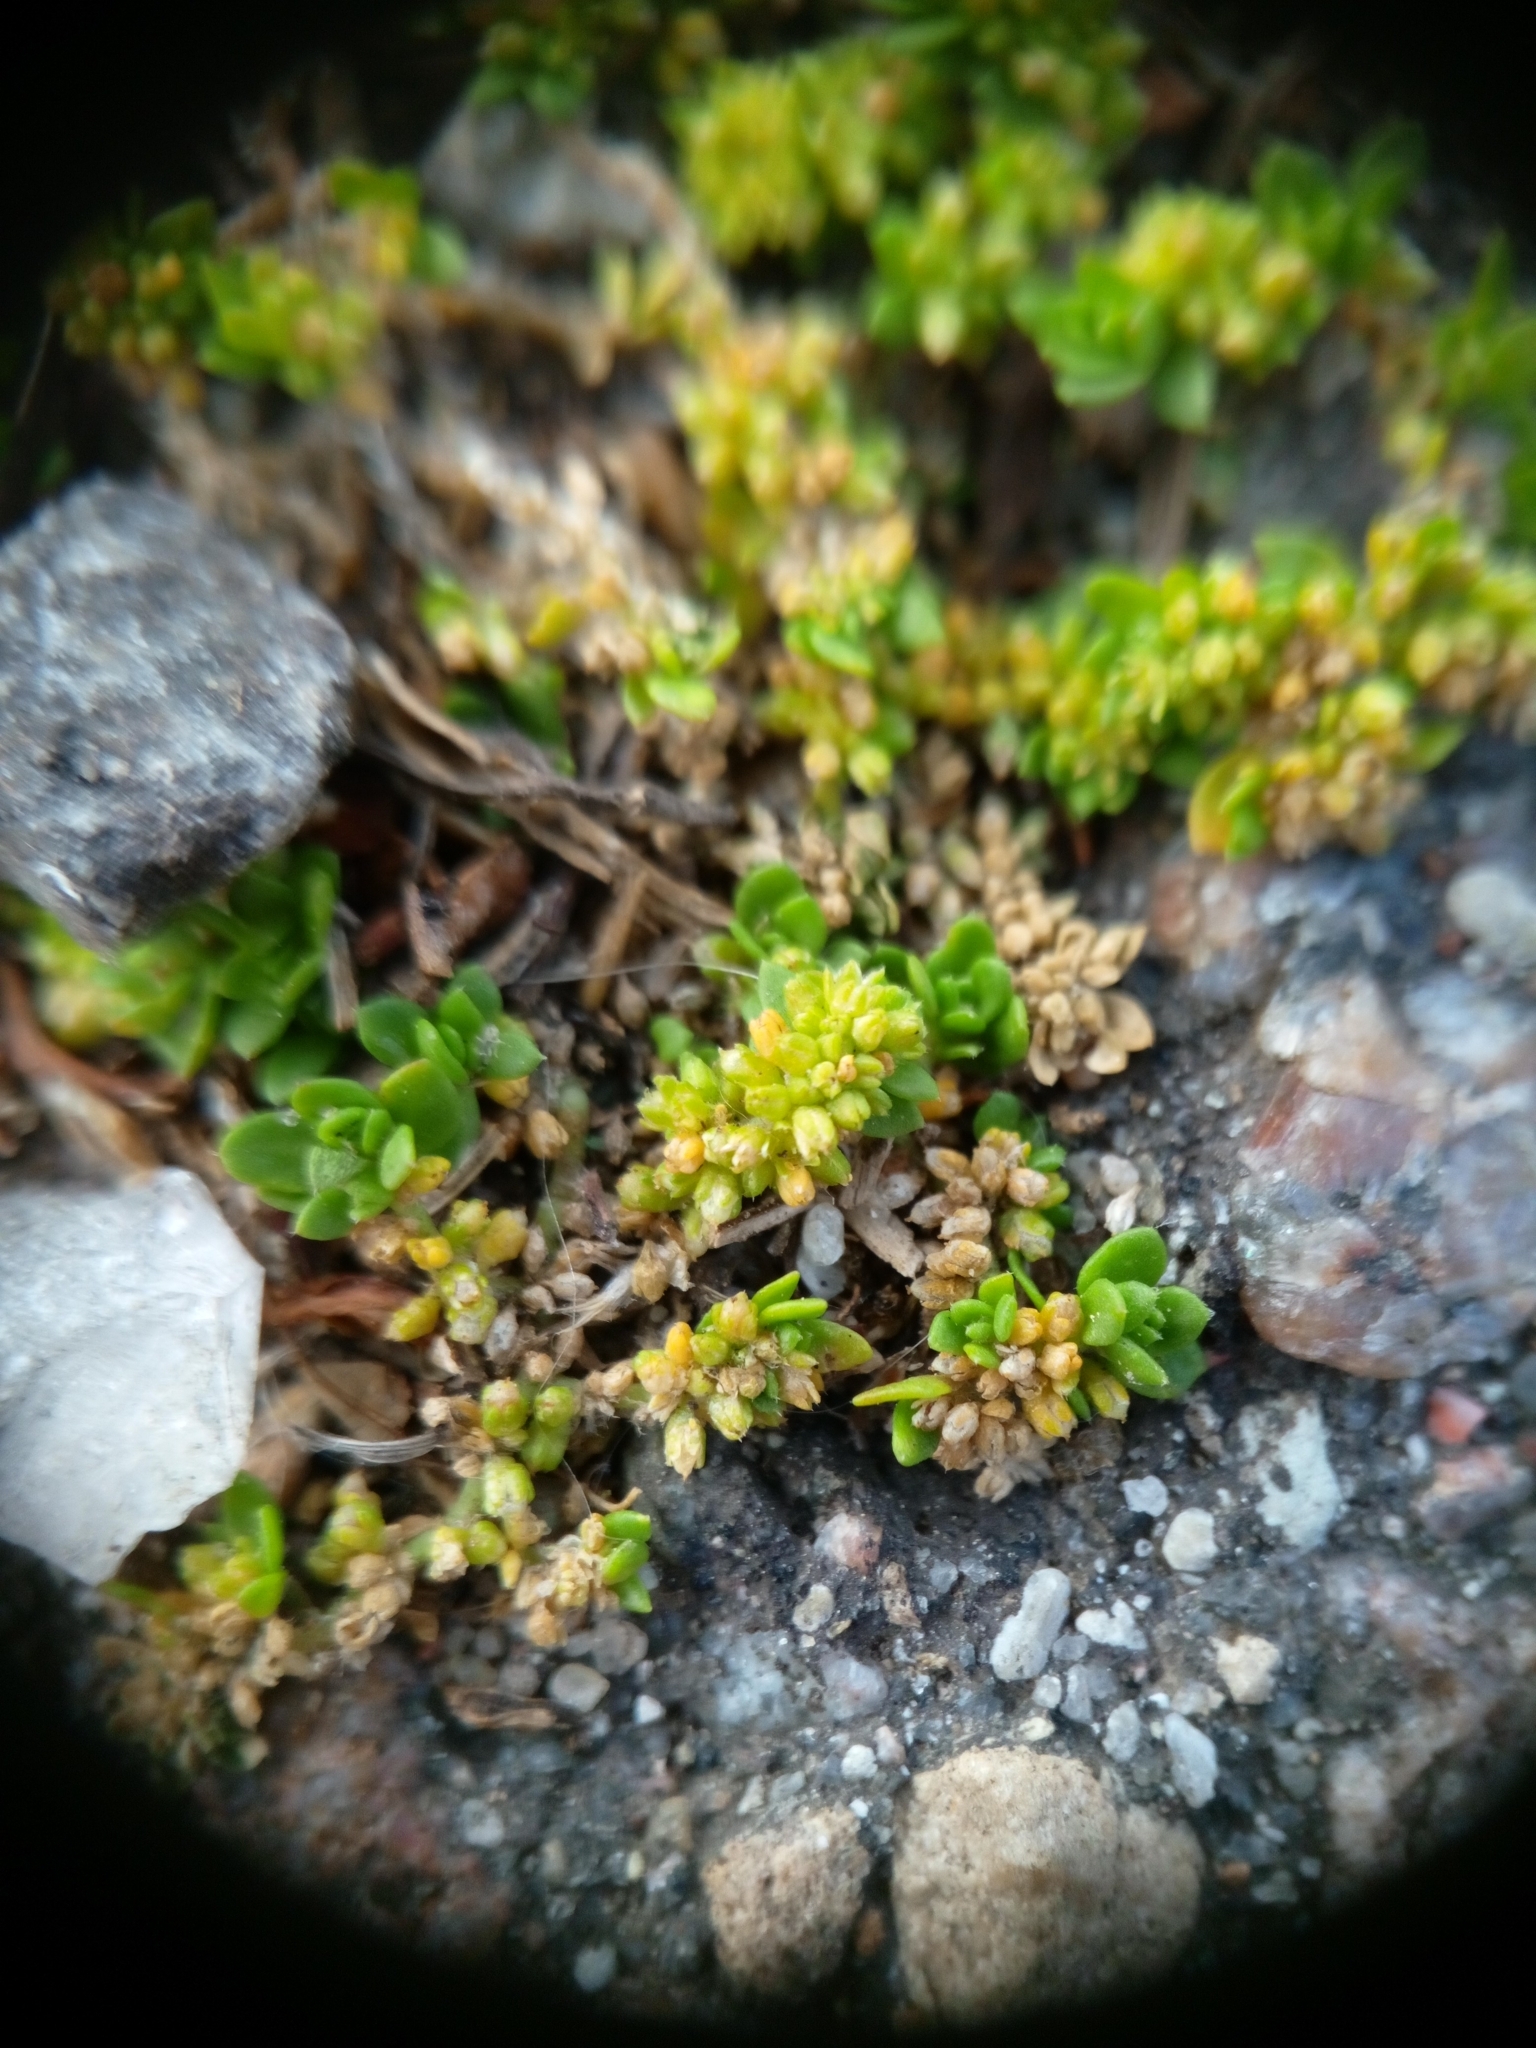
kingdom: Plantae
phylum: Tracheophyta
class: Magnoliopsida
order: Caryophyllales
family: Caryophyllaceae
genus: Herniaria
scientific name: Herniaria glabra
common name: Smooth rupturewort
